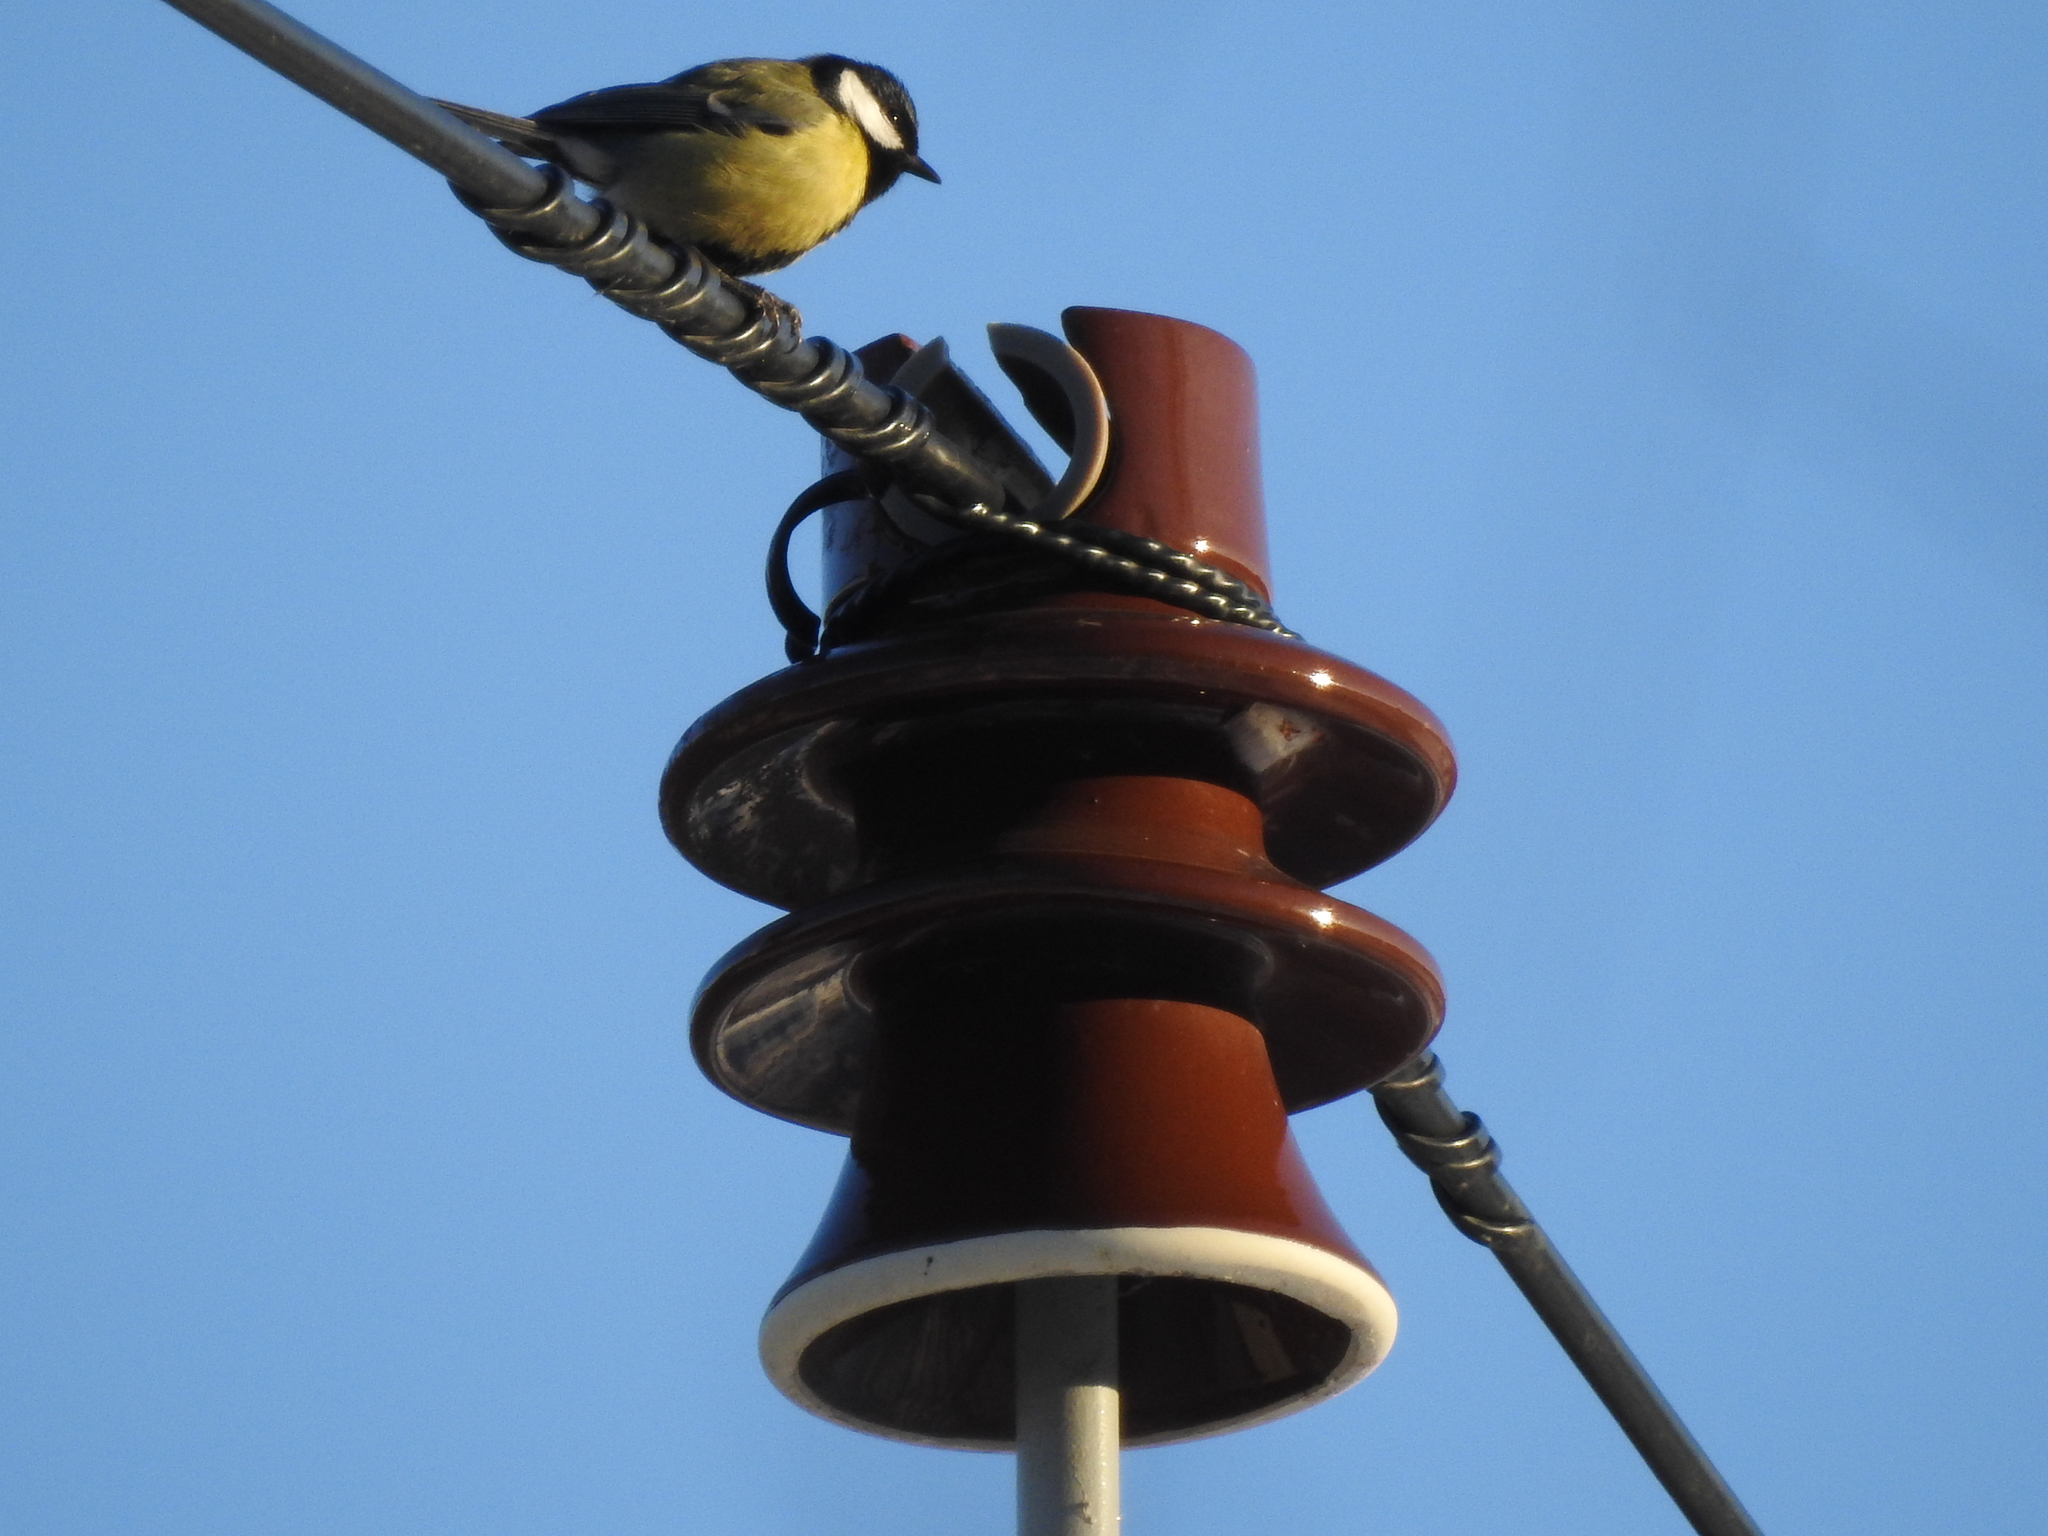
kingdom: Animalia
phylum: Chordata
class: Aves
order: Passeriformes
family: Paridae
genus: Parus
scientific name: Parus major
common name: Great tit
